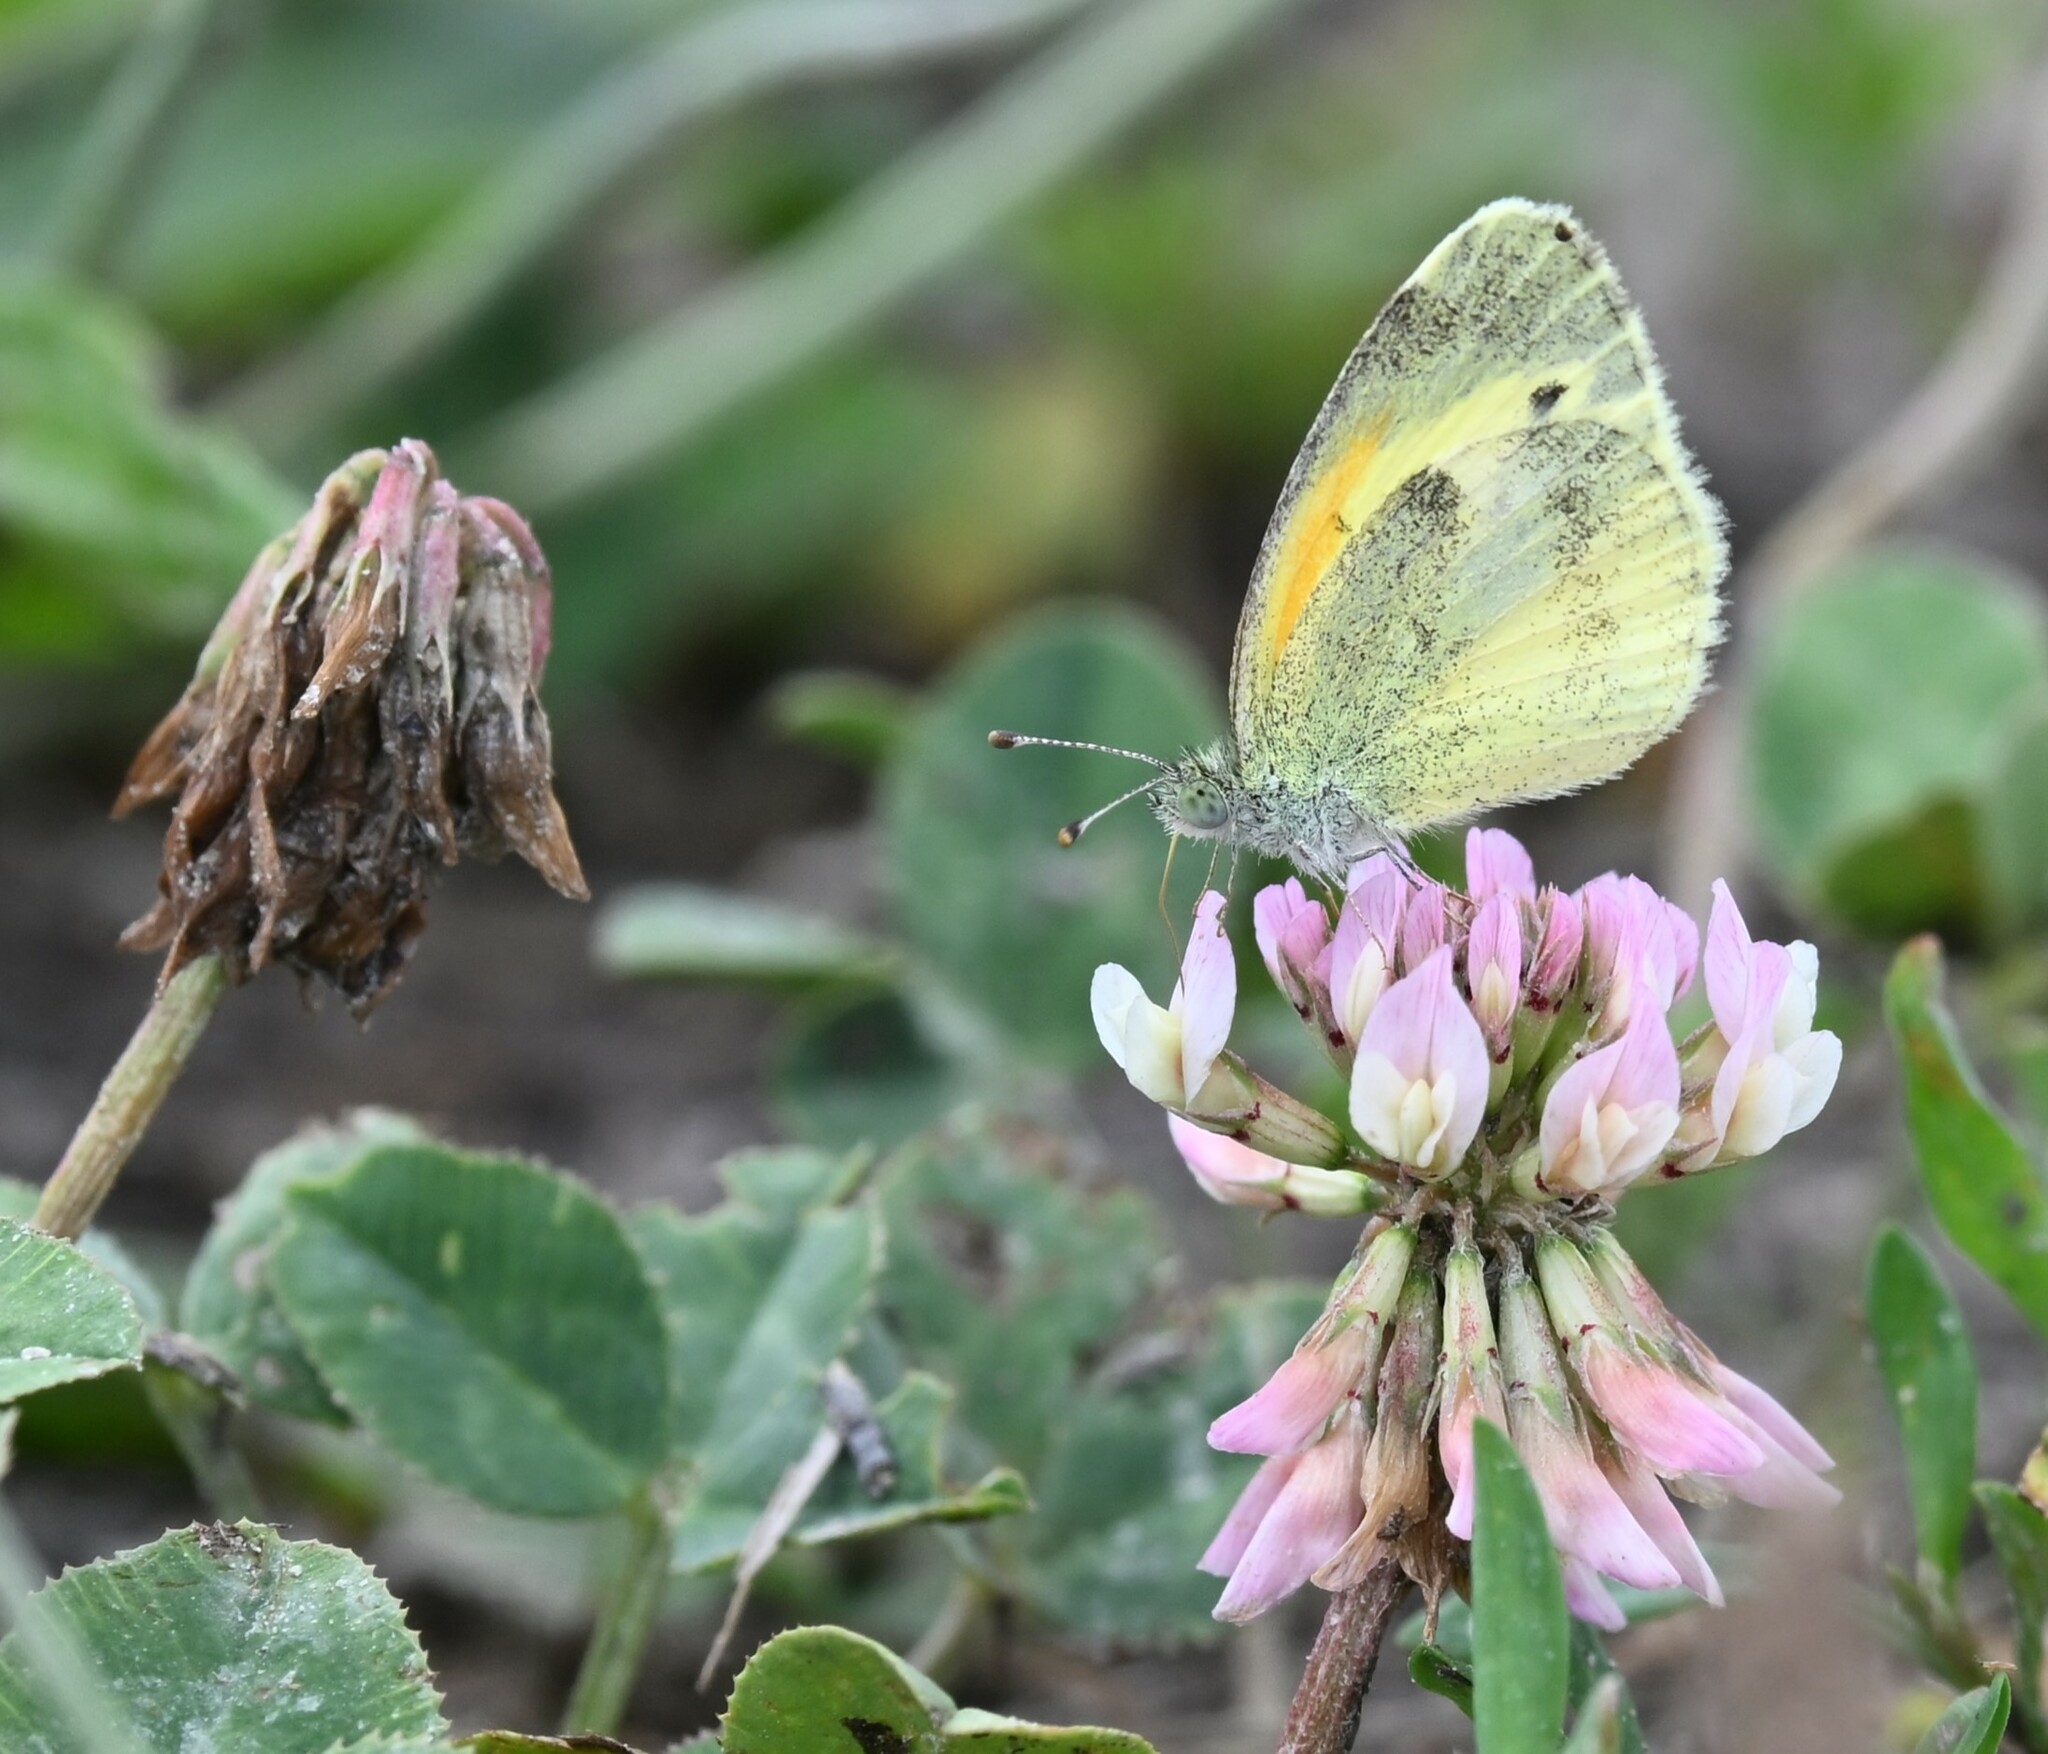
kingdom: Animalia
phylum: Arthropoda
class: Insecta
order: Lepidoptera
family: Pieridae
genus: Nathalis
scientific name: Nathalis iole
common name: Dainty sulphur
